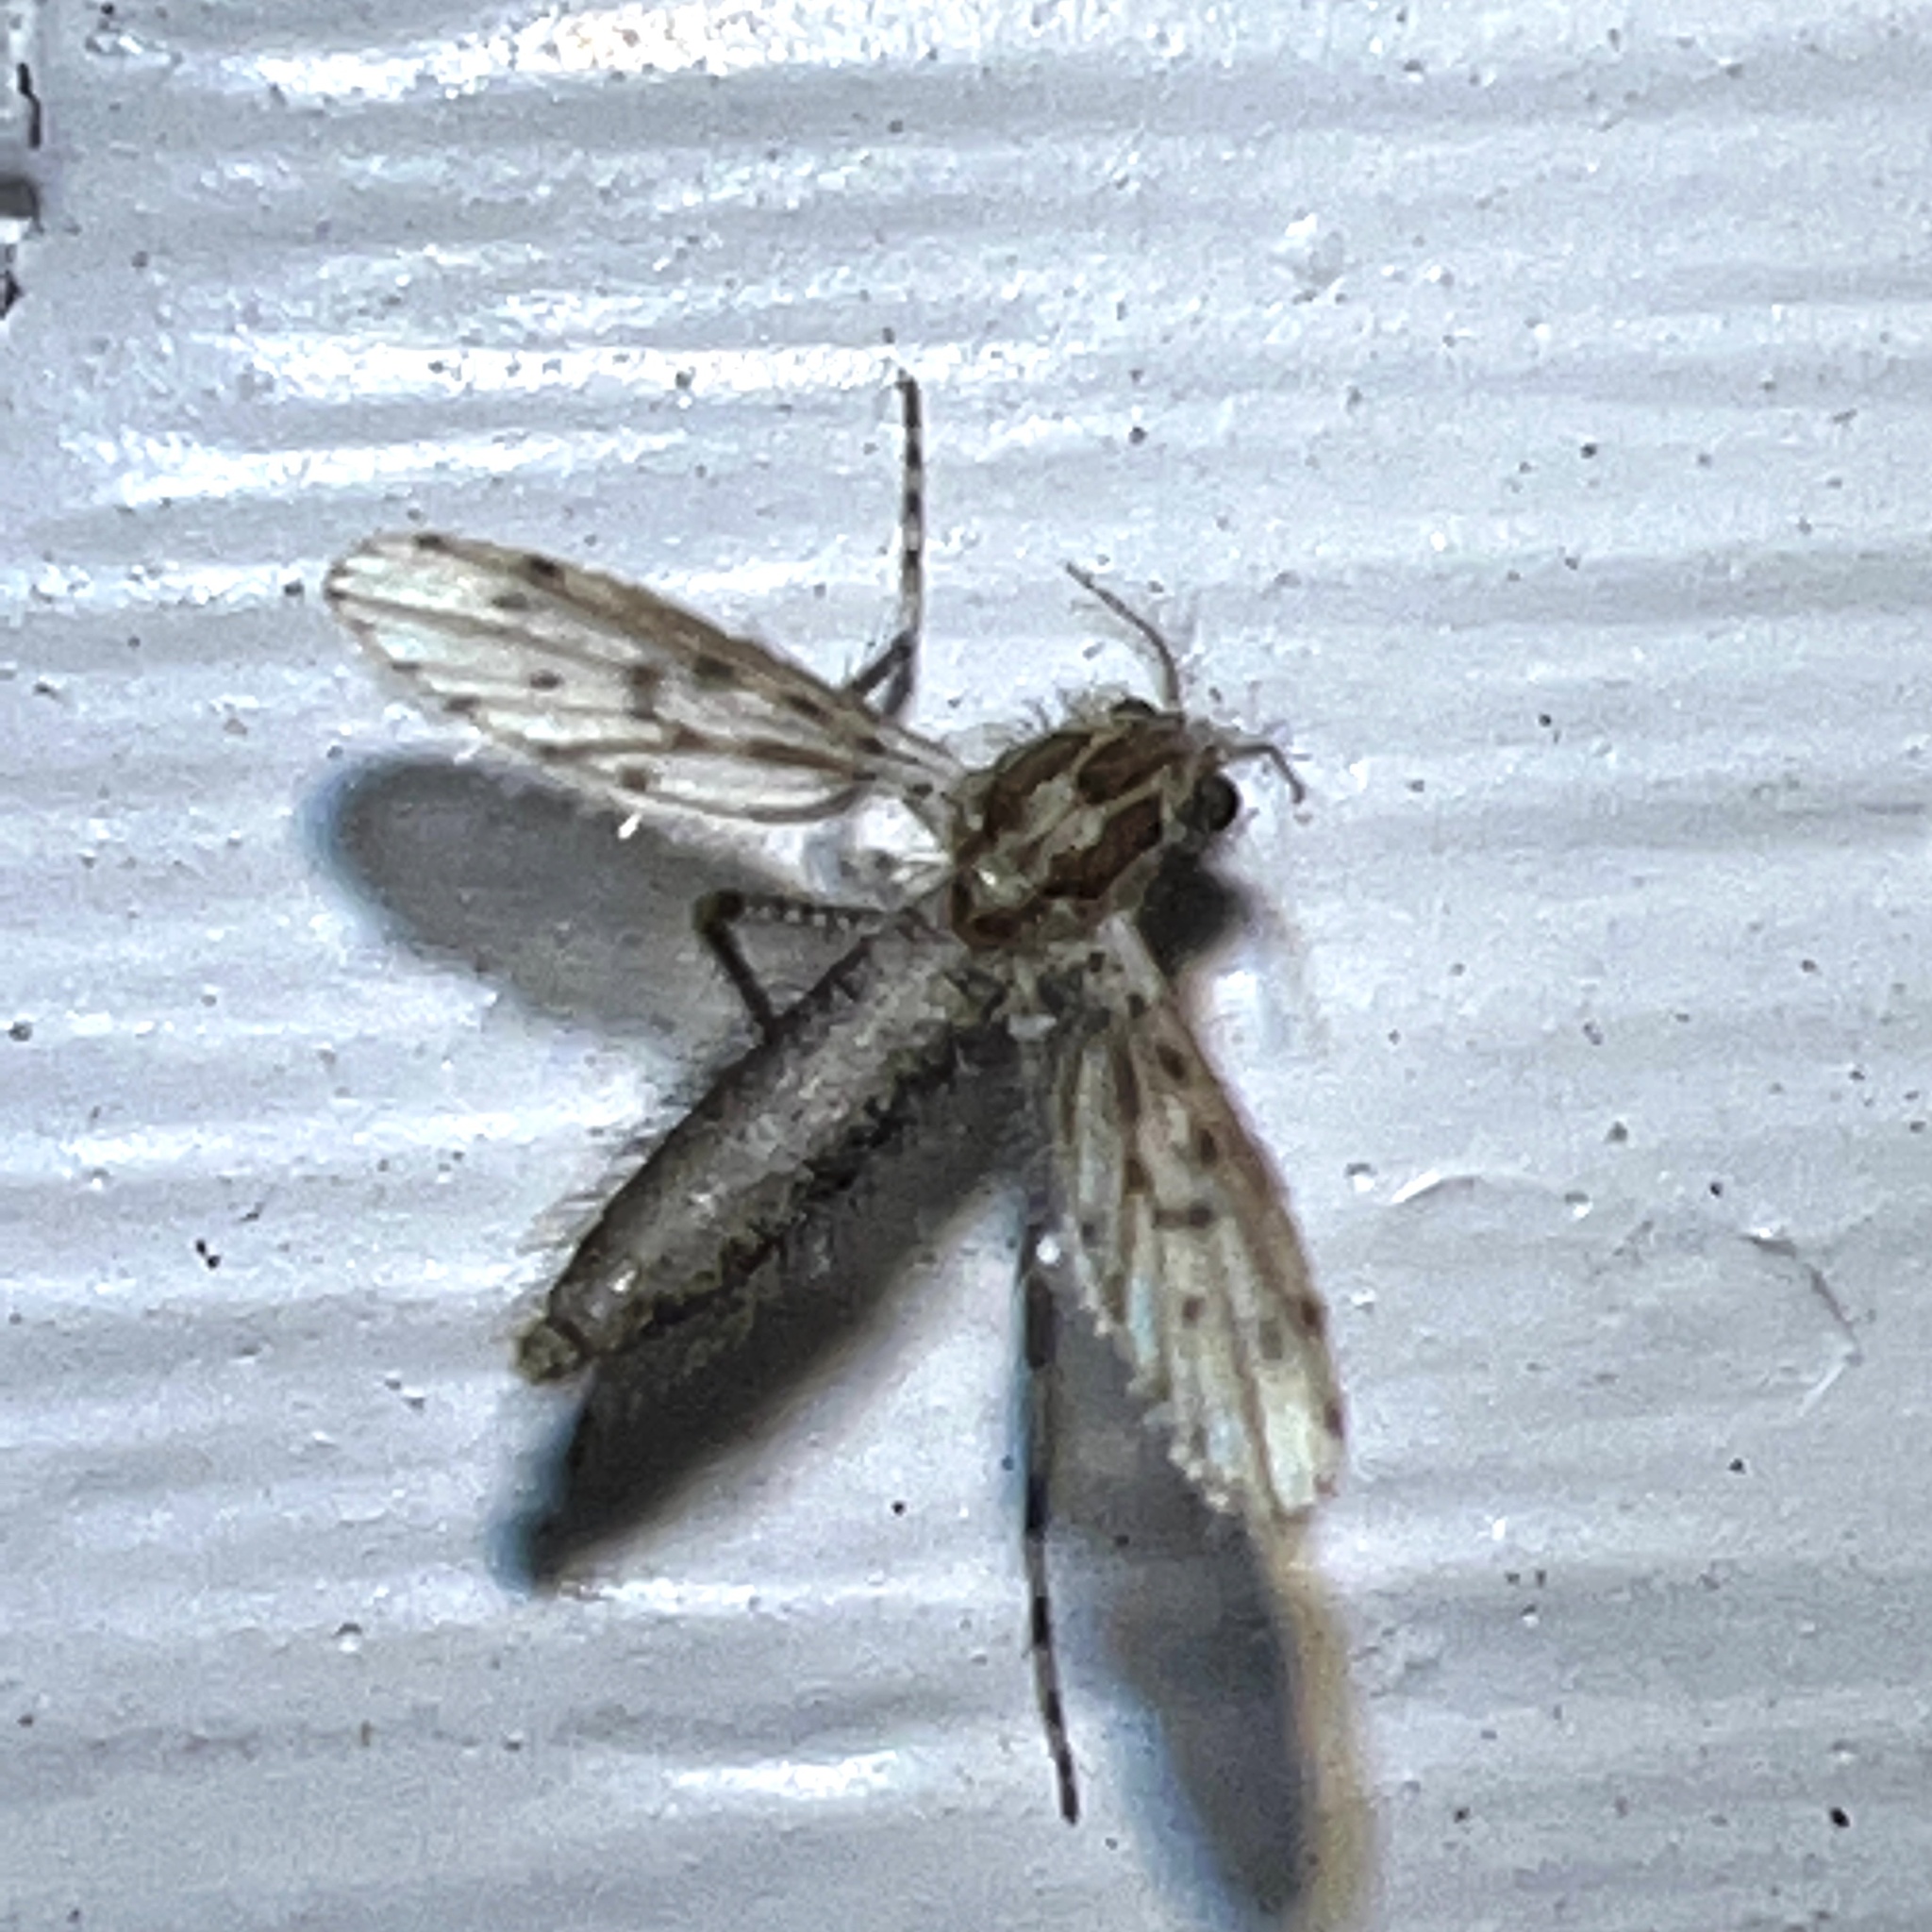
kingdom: Animalia
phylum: Arthropoda
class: Insecta
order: Diptera
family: Chaoboridae
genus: Chaoborus
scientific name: Chaoborus punctipennis
